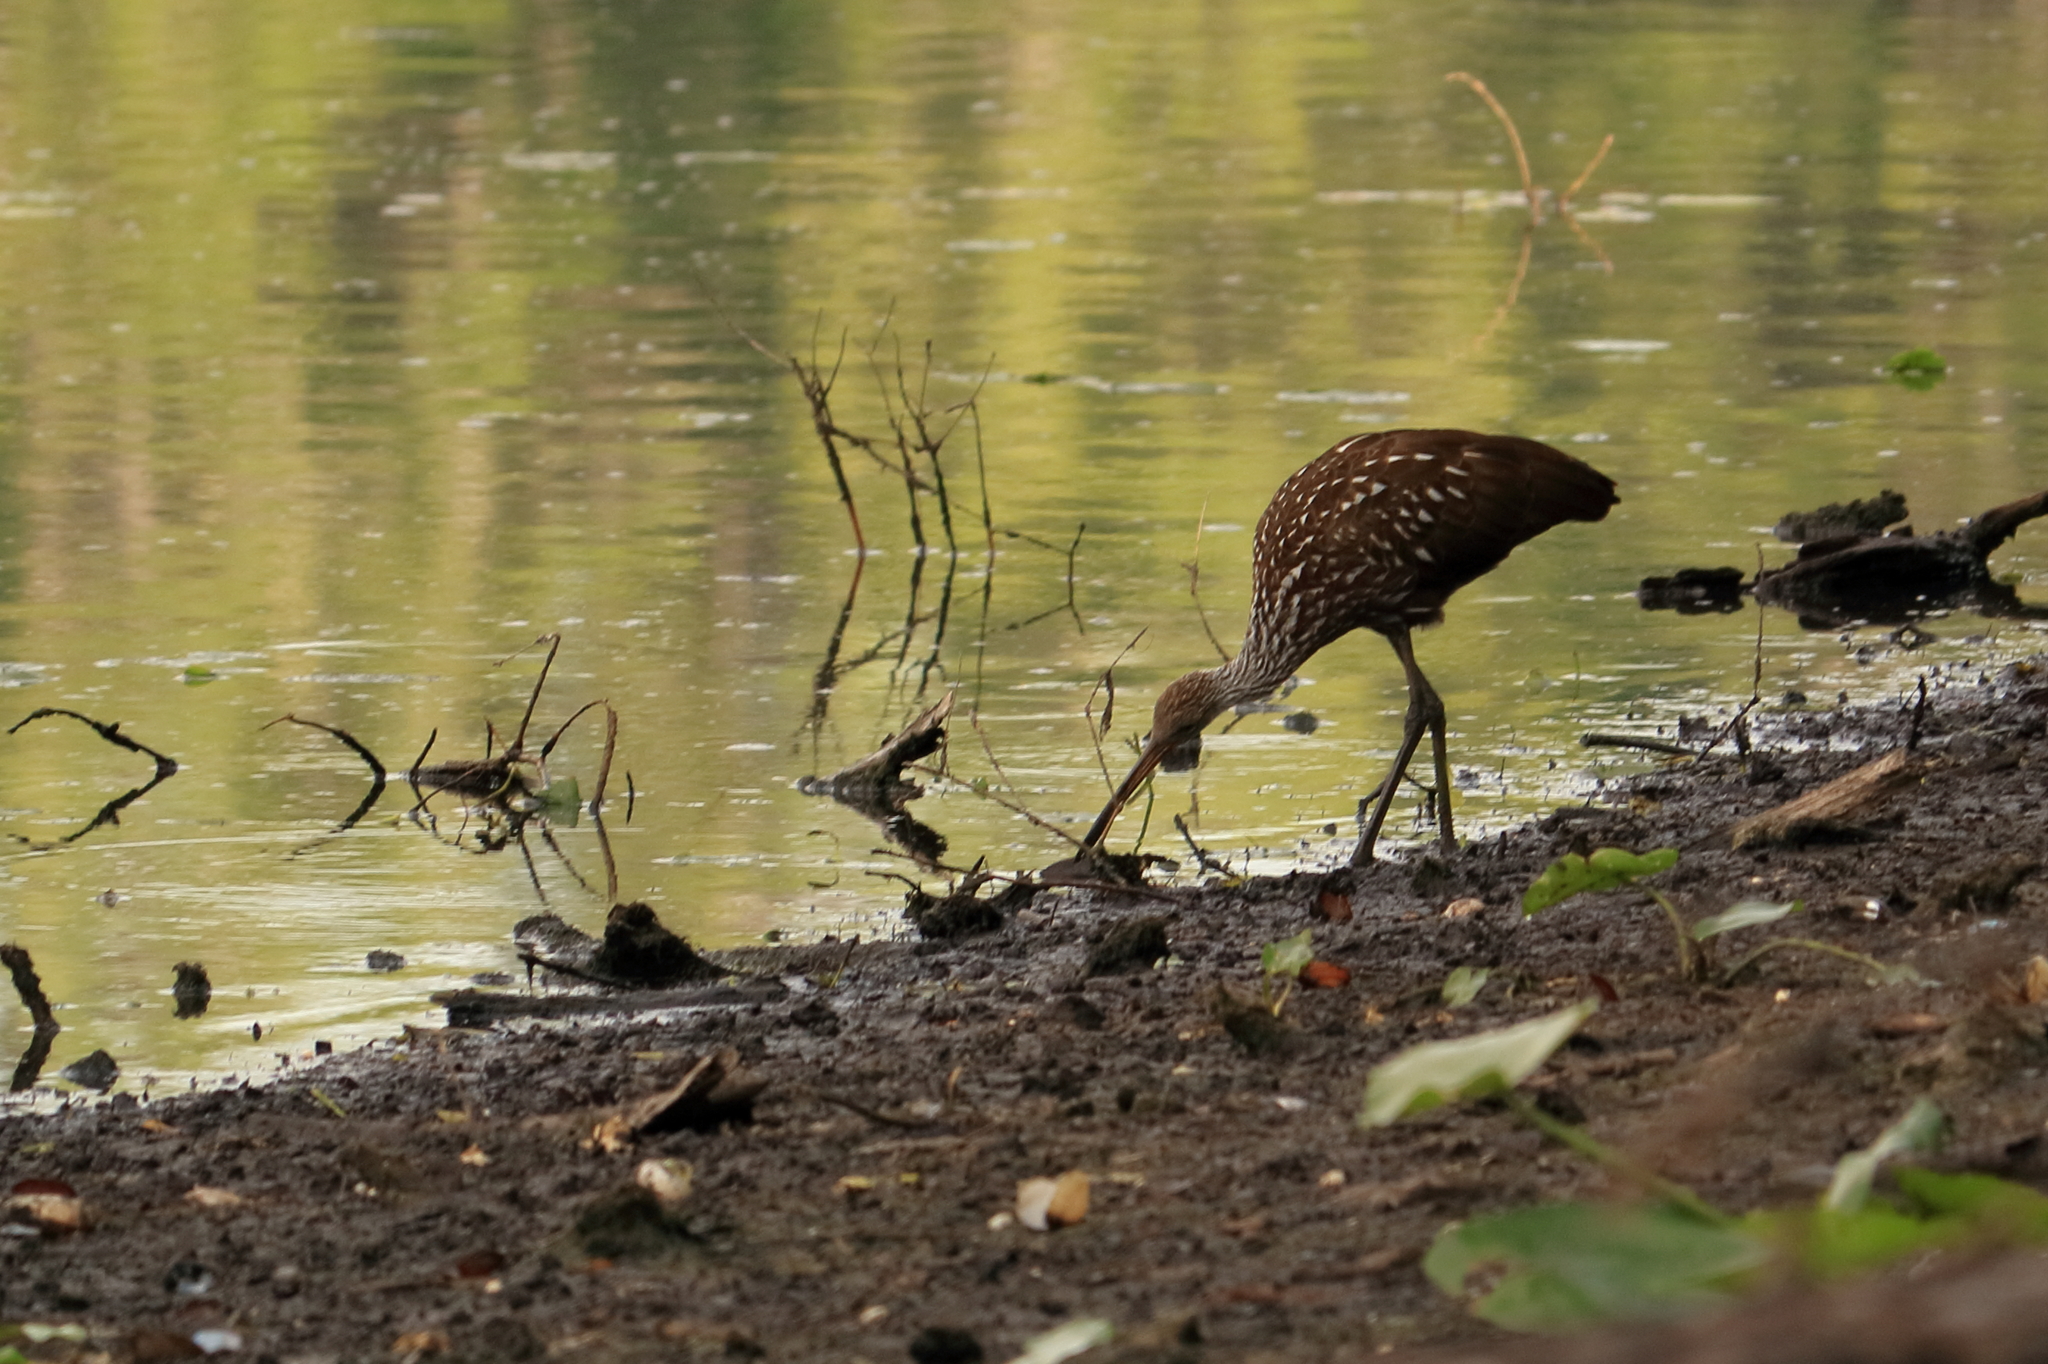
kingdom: Animalia
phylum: Chordata
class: Aves
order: Gruiformes
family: Aramidae
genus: Aramus
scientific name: Aramus guarauna
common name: Limpkin
